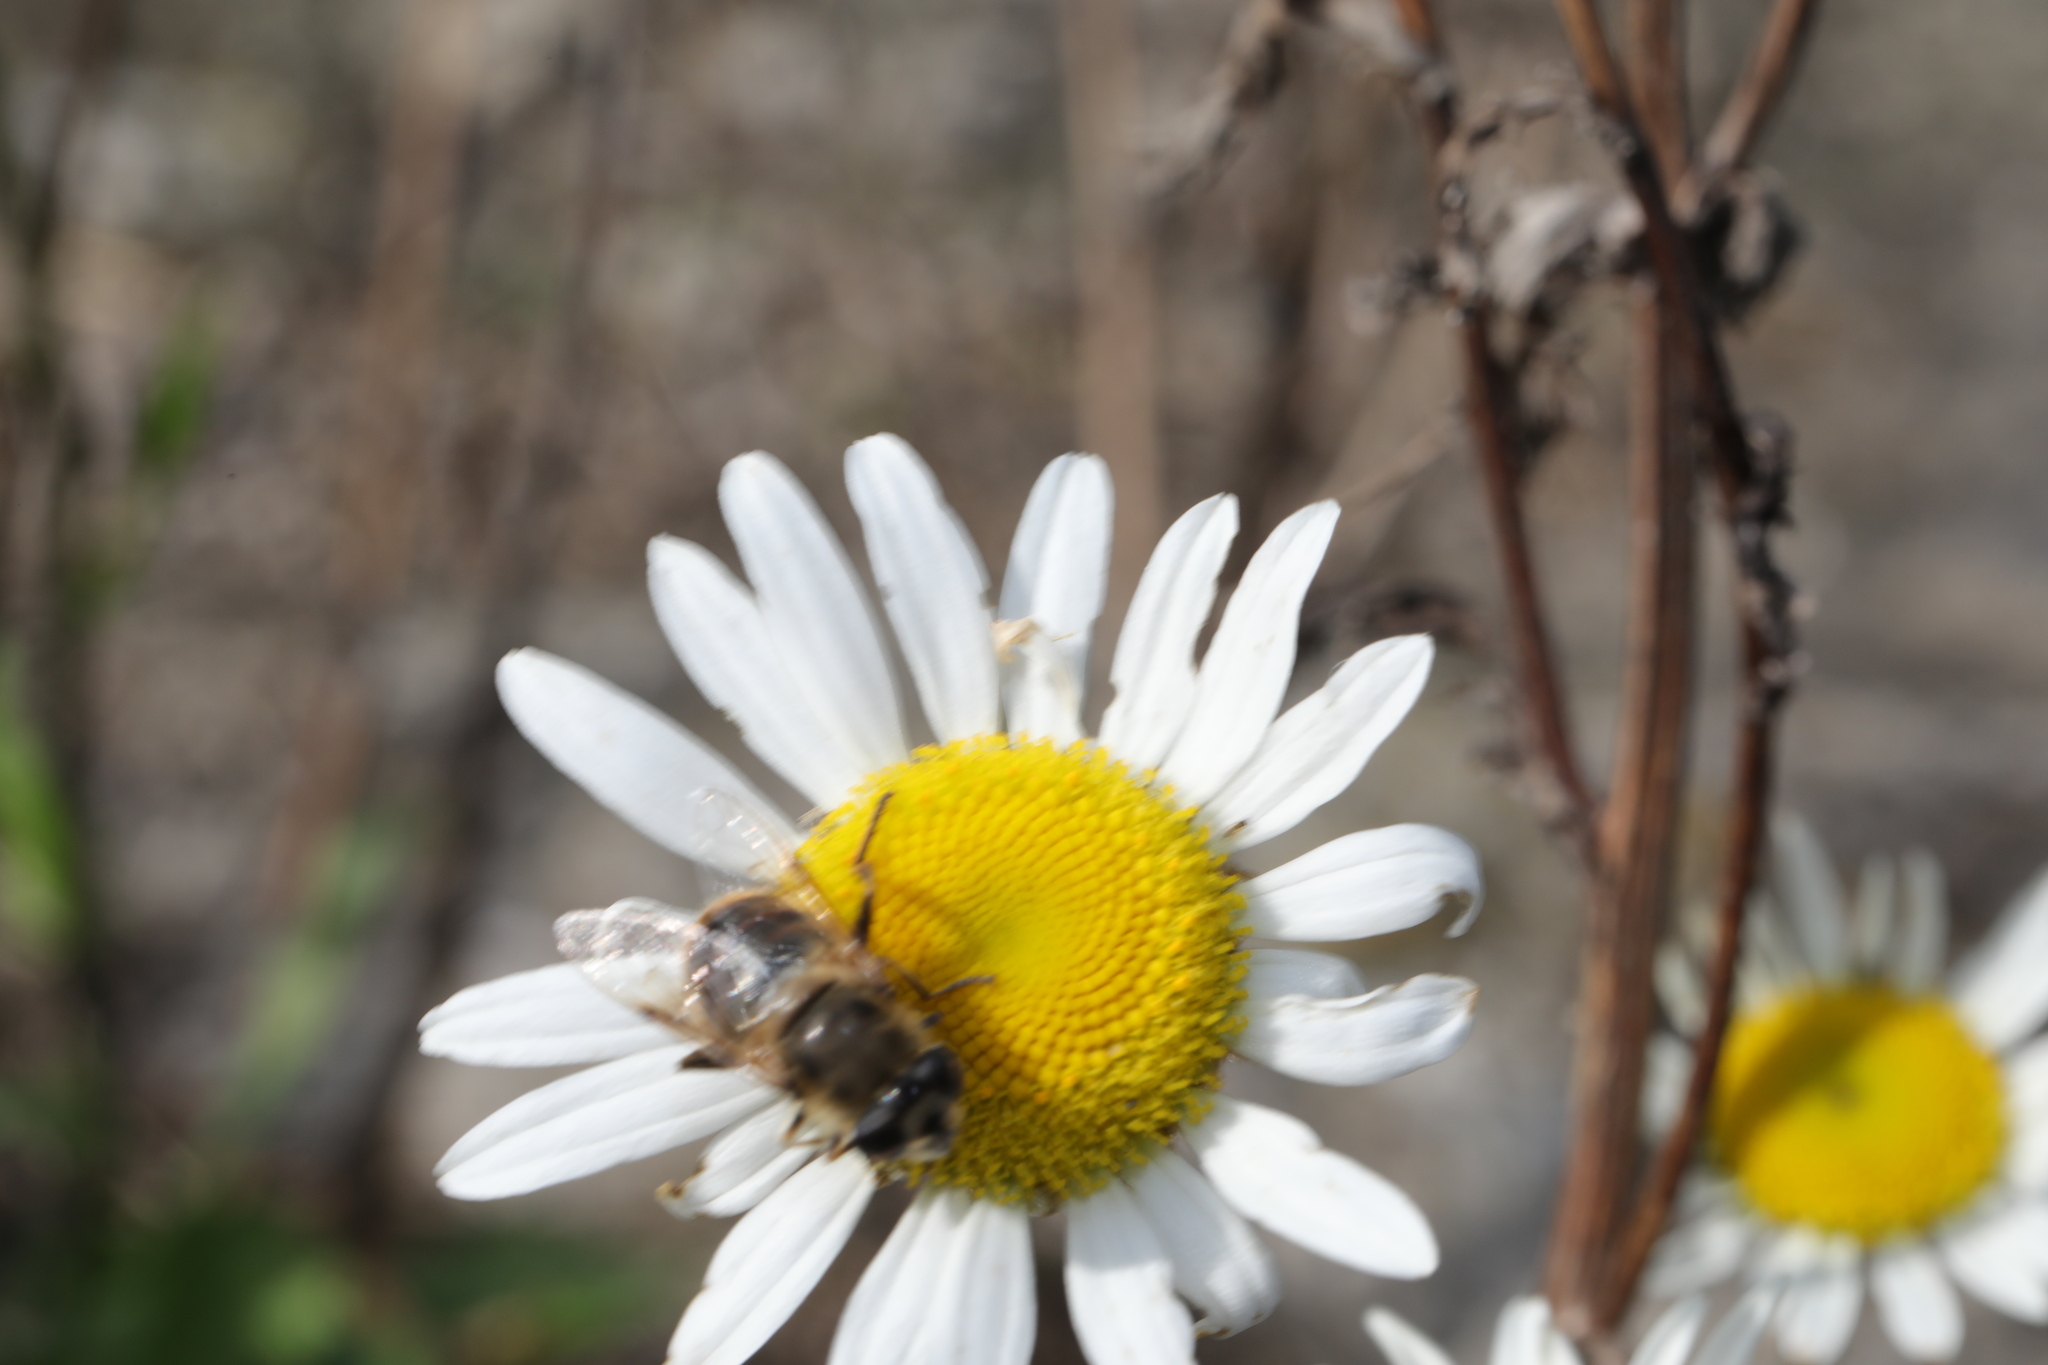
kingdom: Animalia
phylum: Arthropoda
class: Insecta
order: Diptera
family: Syrphidae
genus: Eristalis
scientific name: Eristalis tenax
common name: Drone fly
